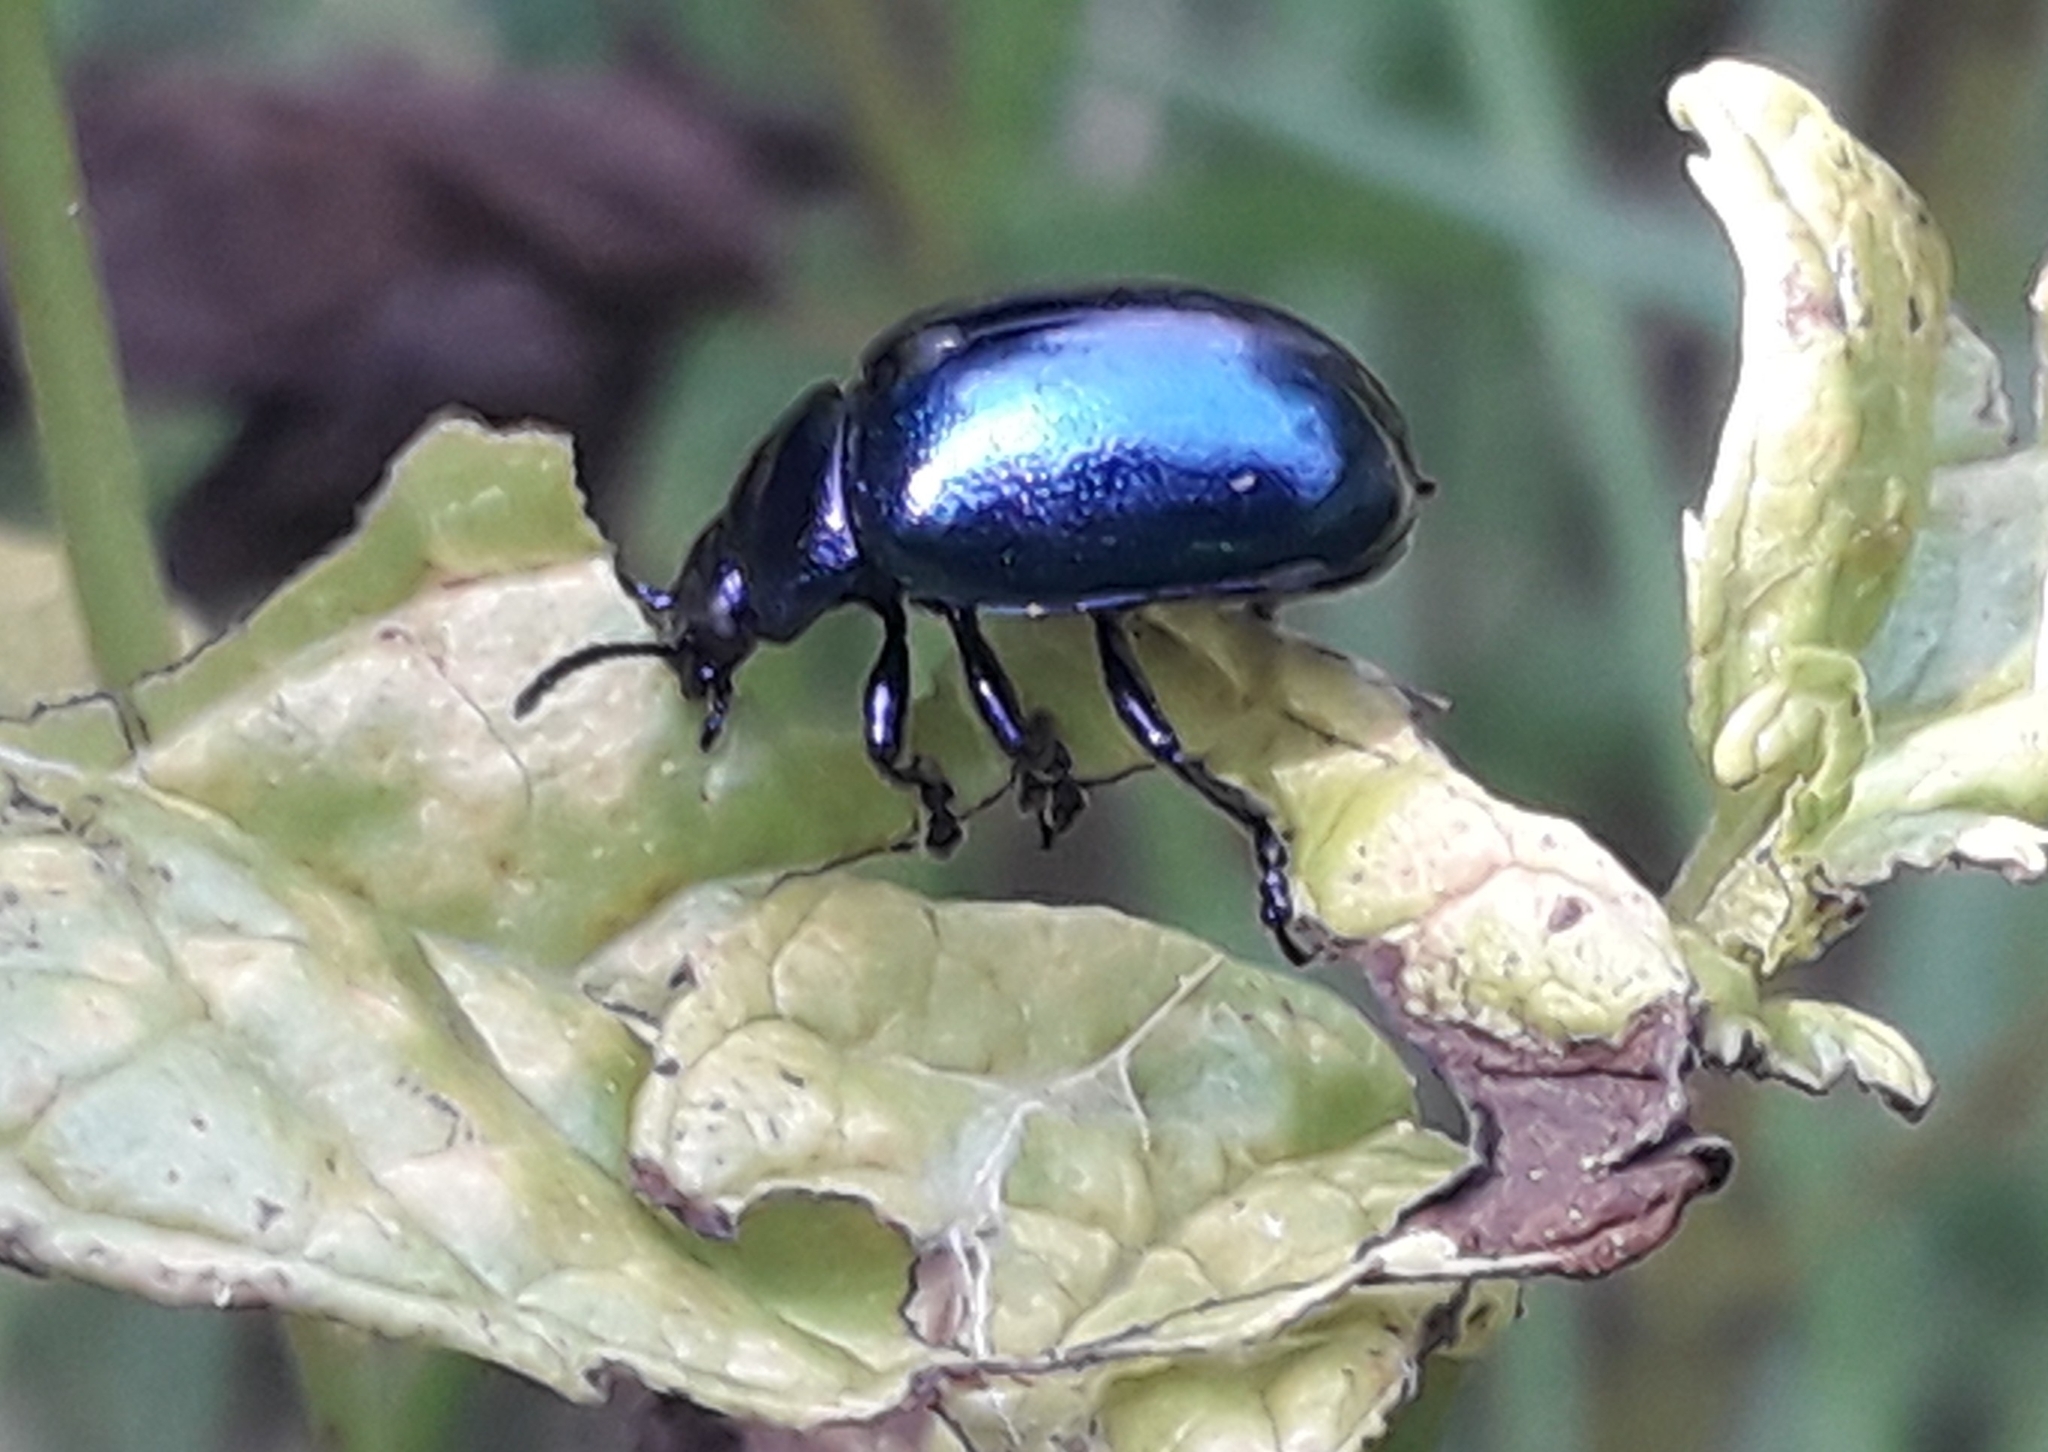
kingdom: Animalia
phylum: Arthropoda
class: Insecta
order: Coleoptera
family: Chrysomelidae
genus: Chrysolina
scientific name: Chrysolina coerulans
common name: Blue mint beetle
